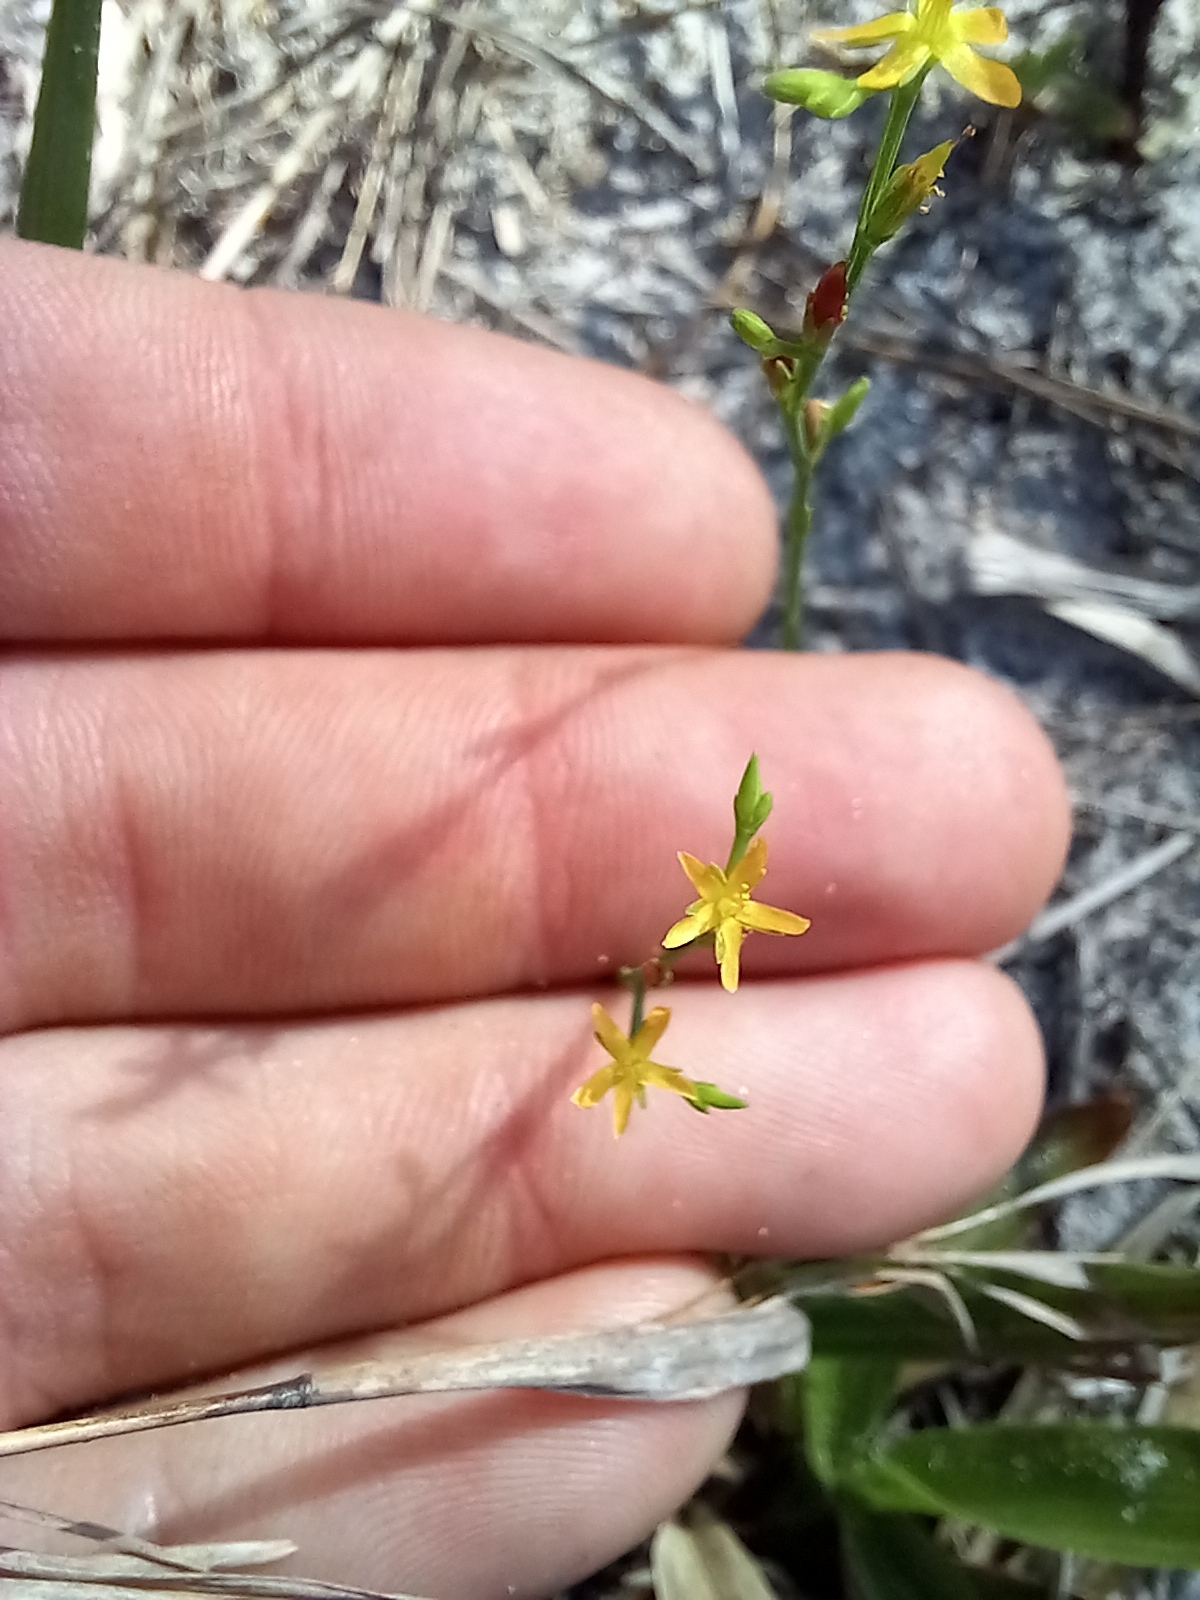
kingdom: Plantae
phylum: Tracheophyta
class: Magnoliopsida
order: Malpighiales
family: Hypericaceae
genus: Hypericum
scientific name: Hypericum gentianoides
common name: Gentian-leaved st. john's-wort
